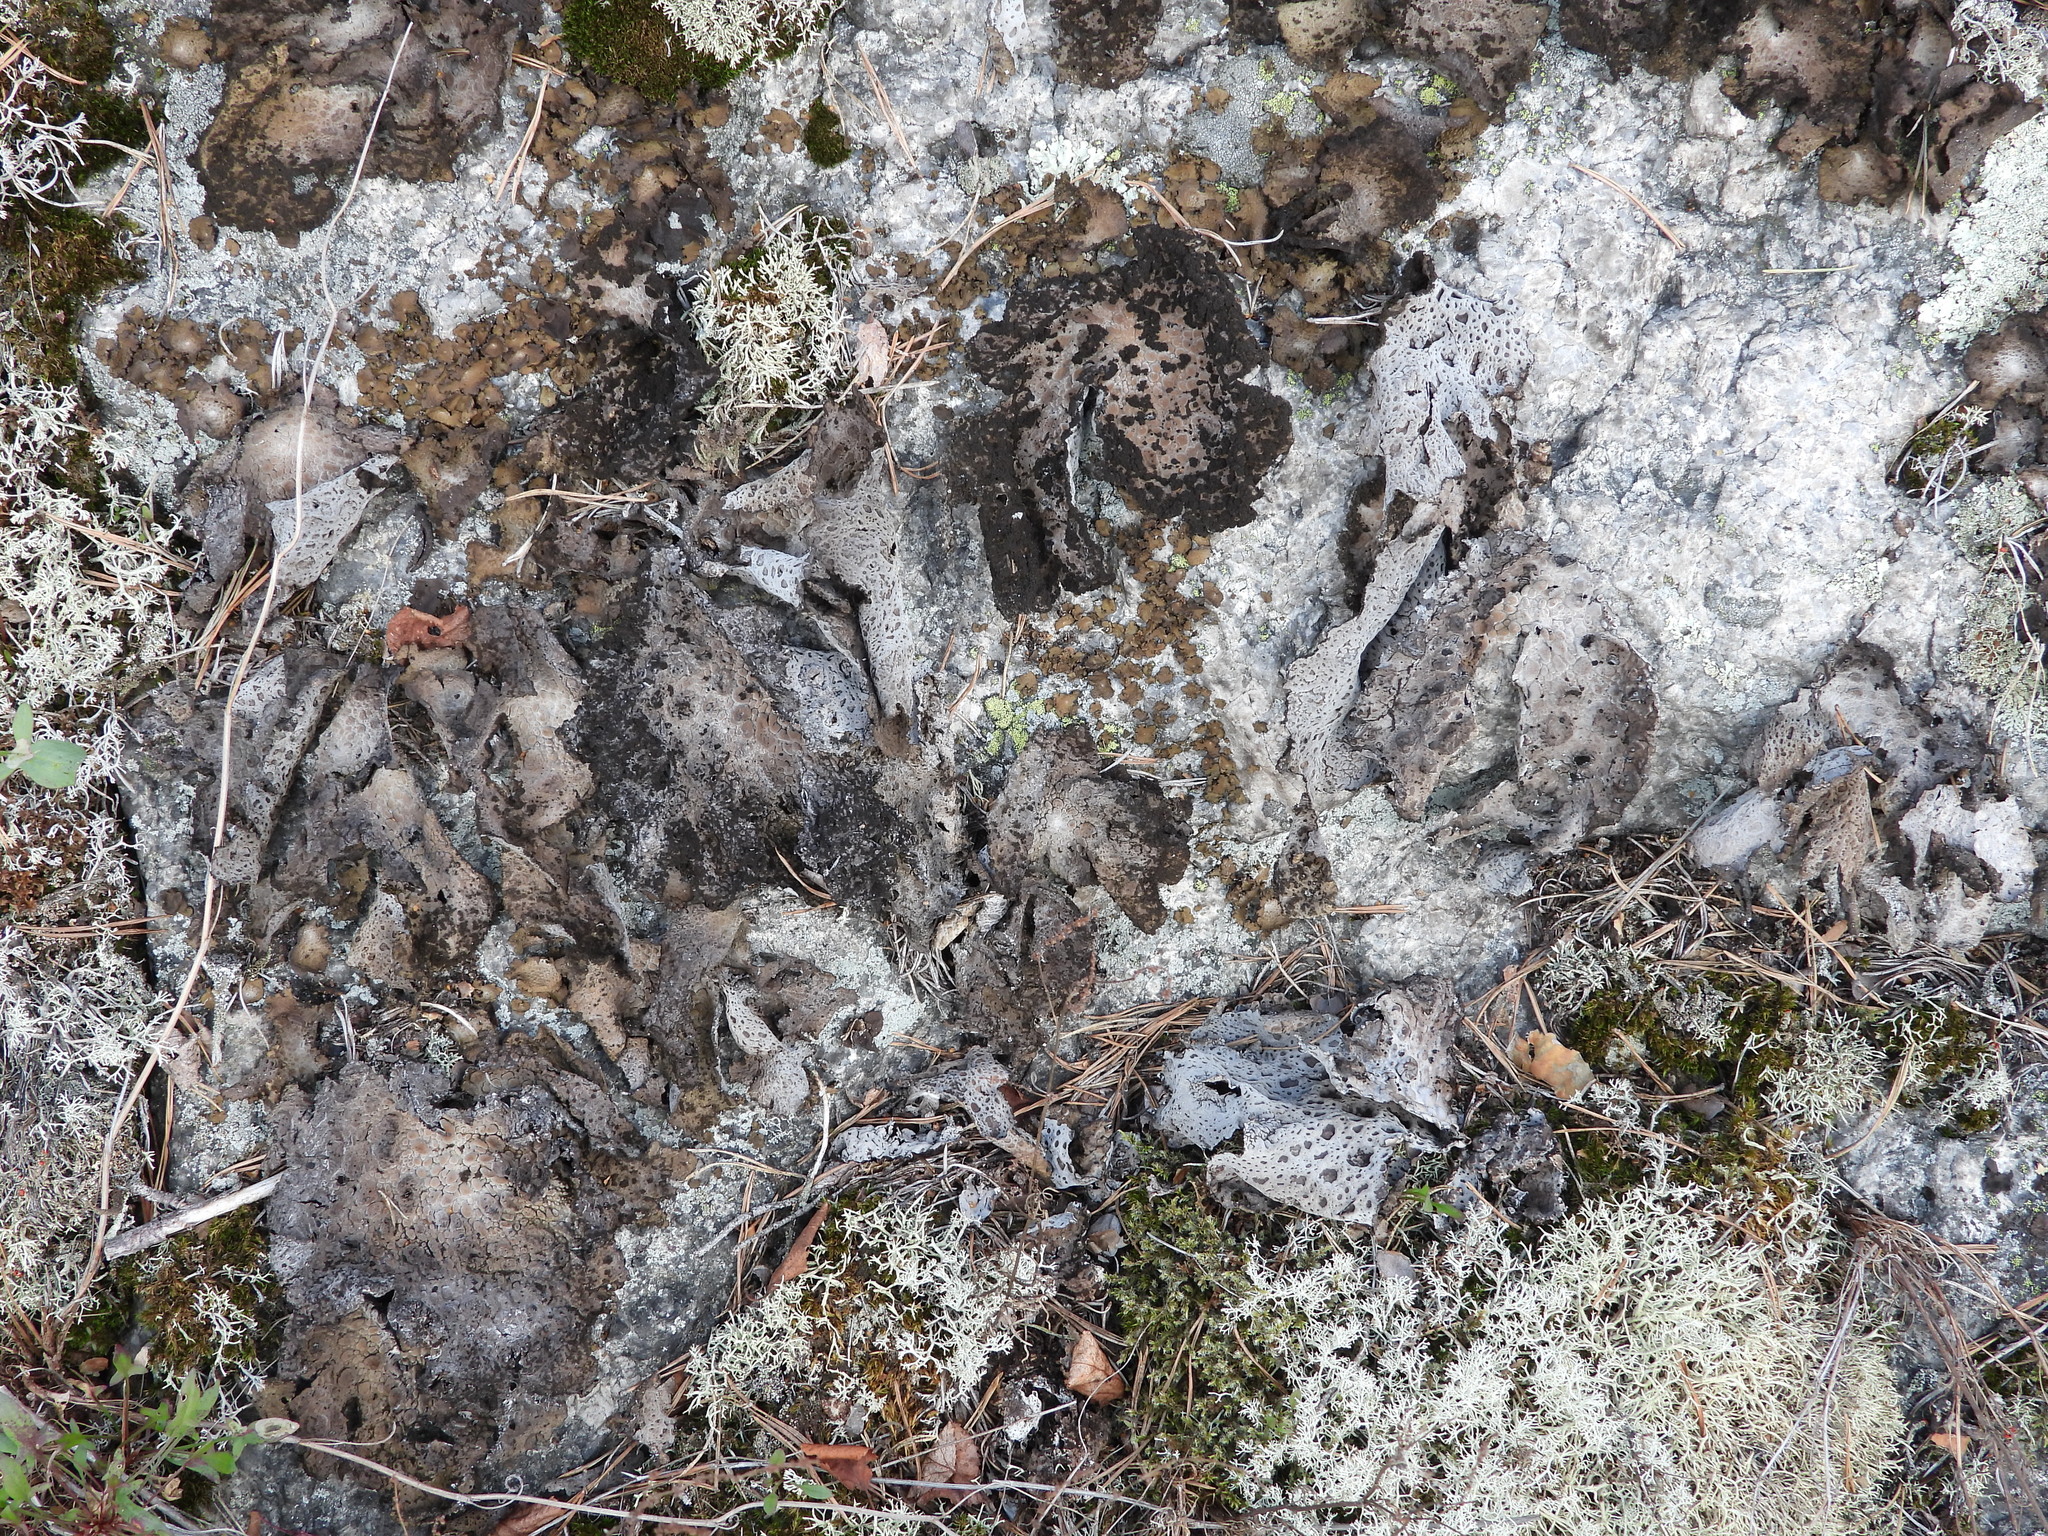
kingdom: Fungi
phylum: Ascomycota
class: Lecanoromycetes
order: Umbilicariales
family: Umbilicariaceae
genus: Lasallia
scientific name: Lasallia pustulata
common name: Blistered toadskin lichen
